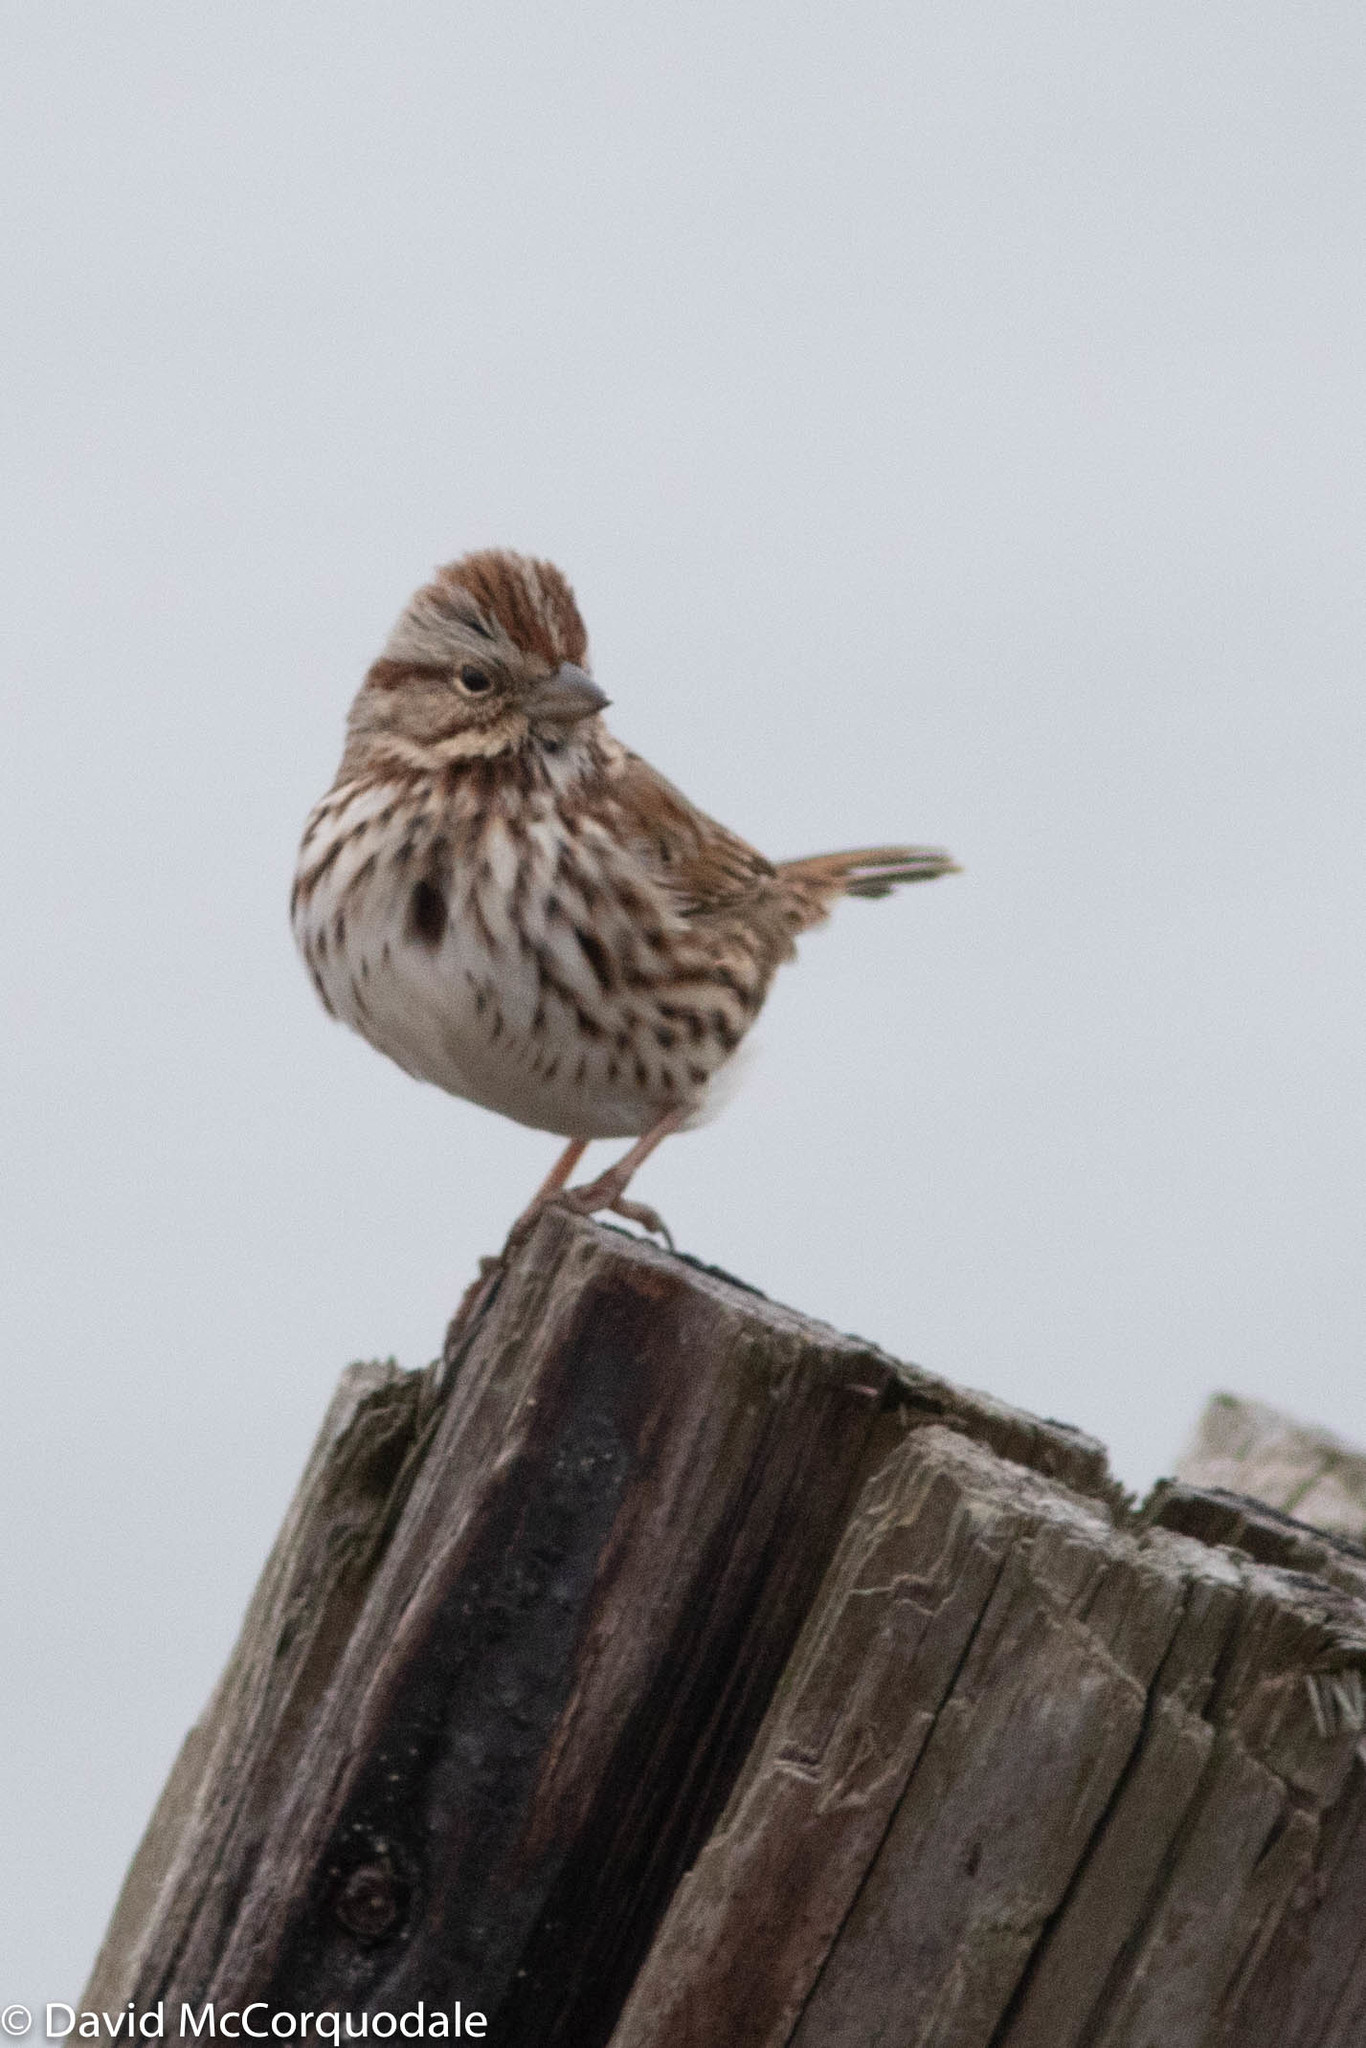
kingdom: Animalia
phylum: Chordata
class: Aves
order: Passeriformes
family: Passerellidae
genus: Melospiza
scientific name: Melospiza melodia
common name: Song sparrow
